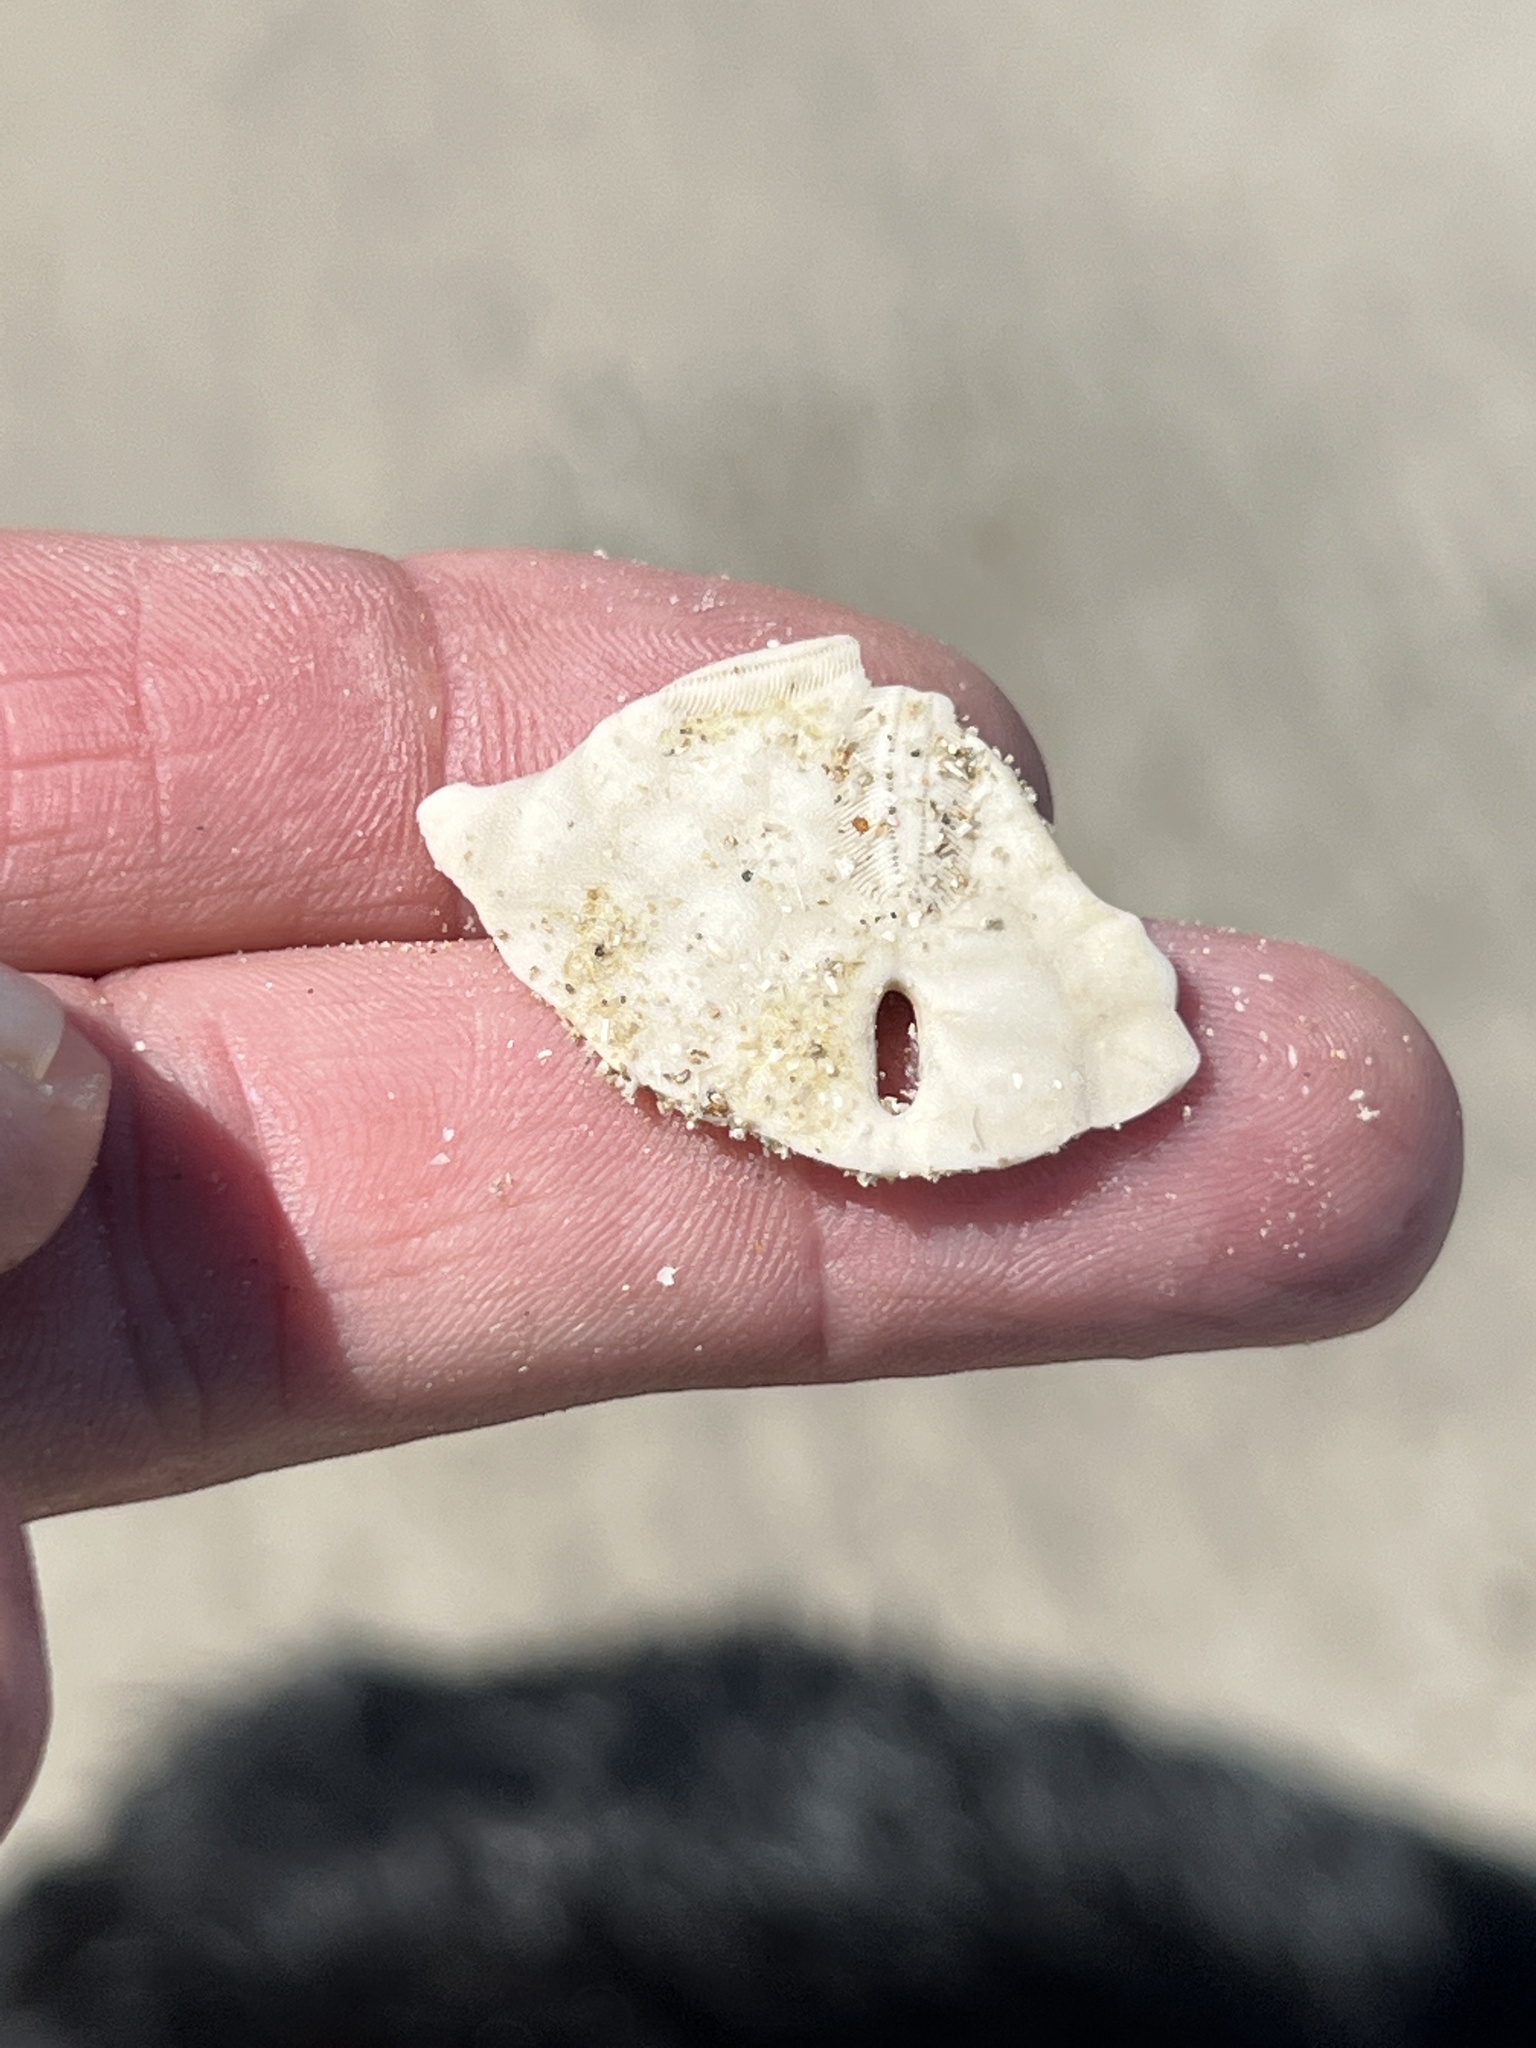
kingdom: Animalia
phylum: Echinodermata
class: Echinoidea
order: Echinolampadacea
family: Mellitidae
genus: Mellita
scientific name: Mellita quinquiesperforata
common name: Sand dollar
